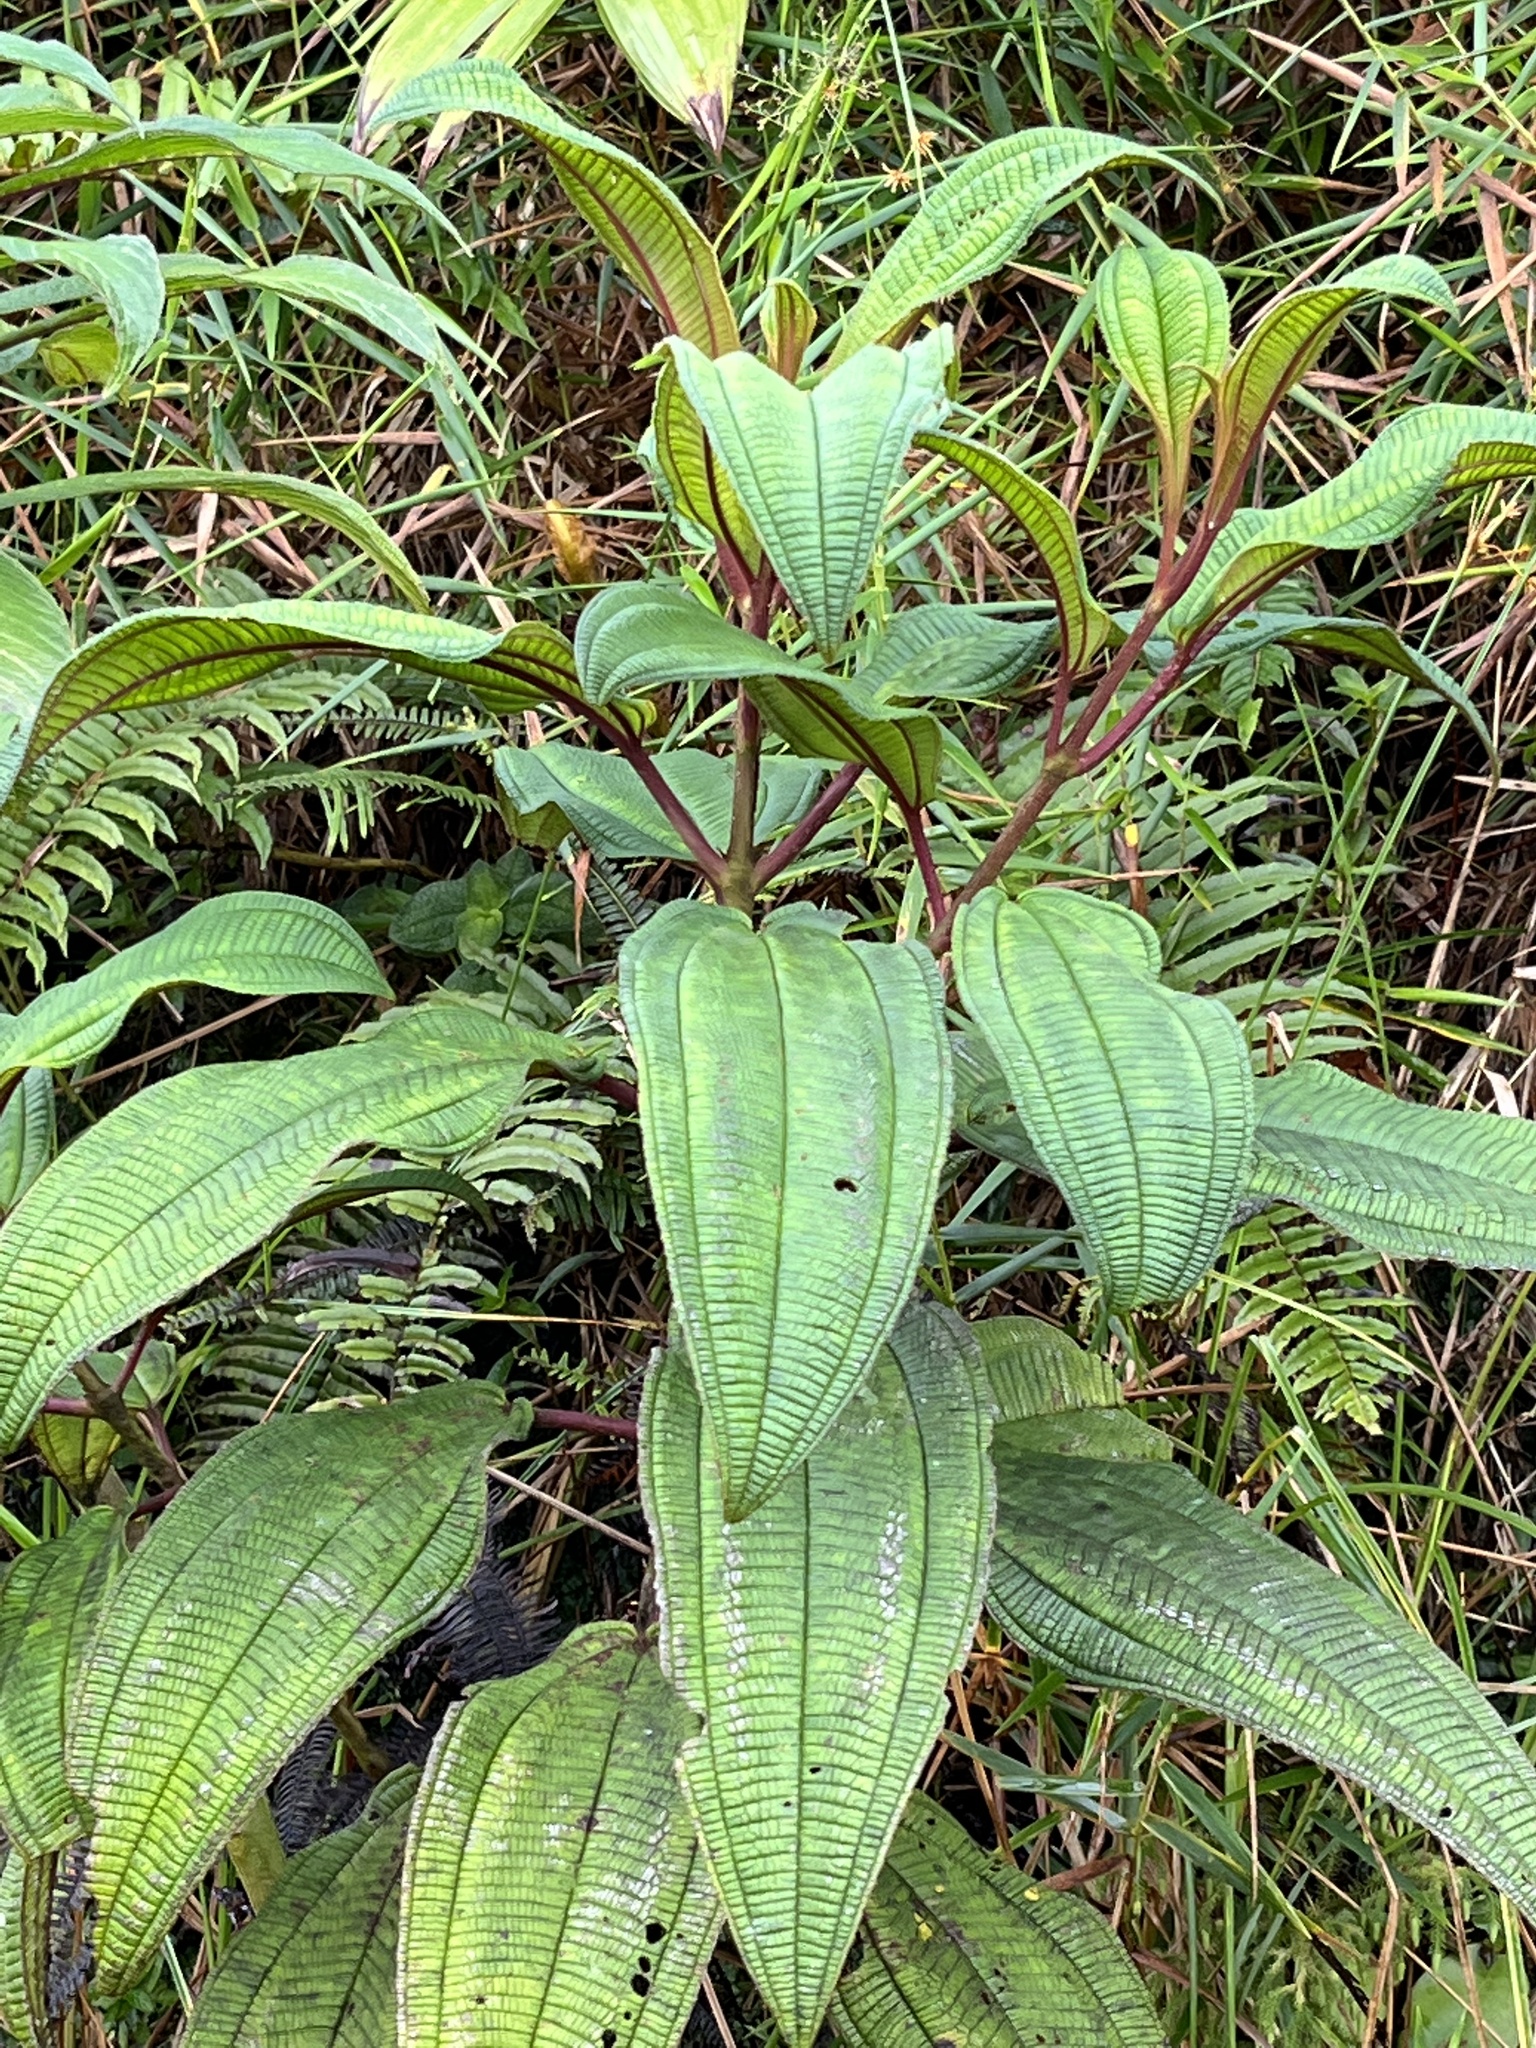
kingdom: Plantae
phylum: Tracheophyta
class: Magnoliopsida
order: Myrtales
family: Melastomataceae
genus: Miconia
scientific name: Miconia sintenisii
